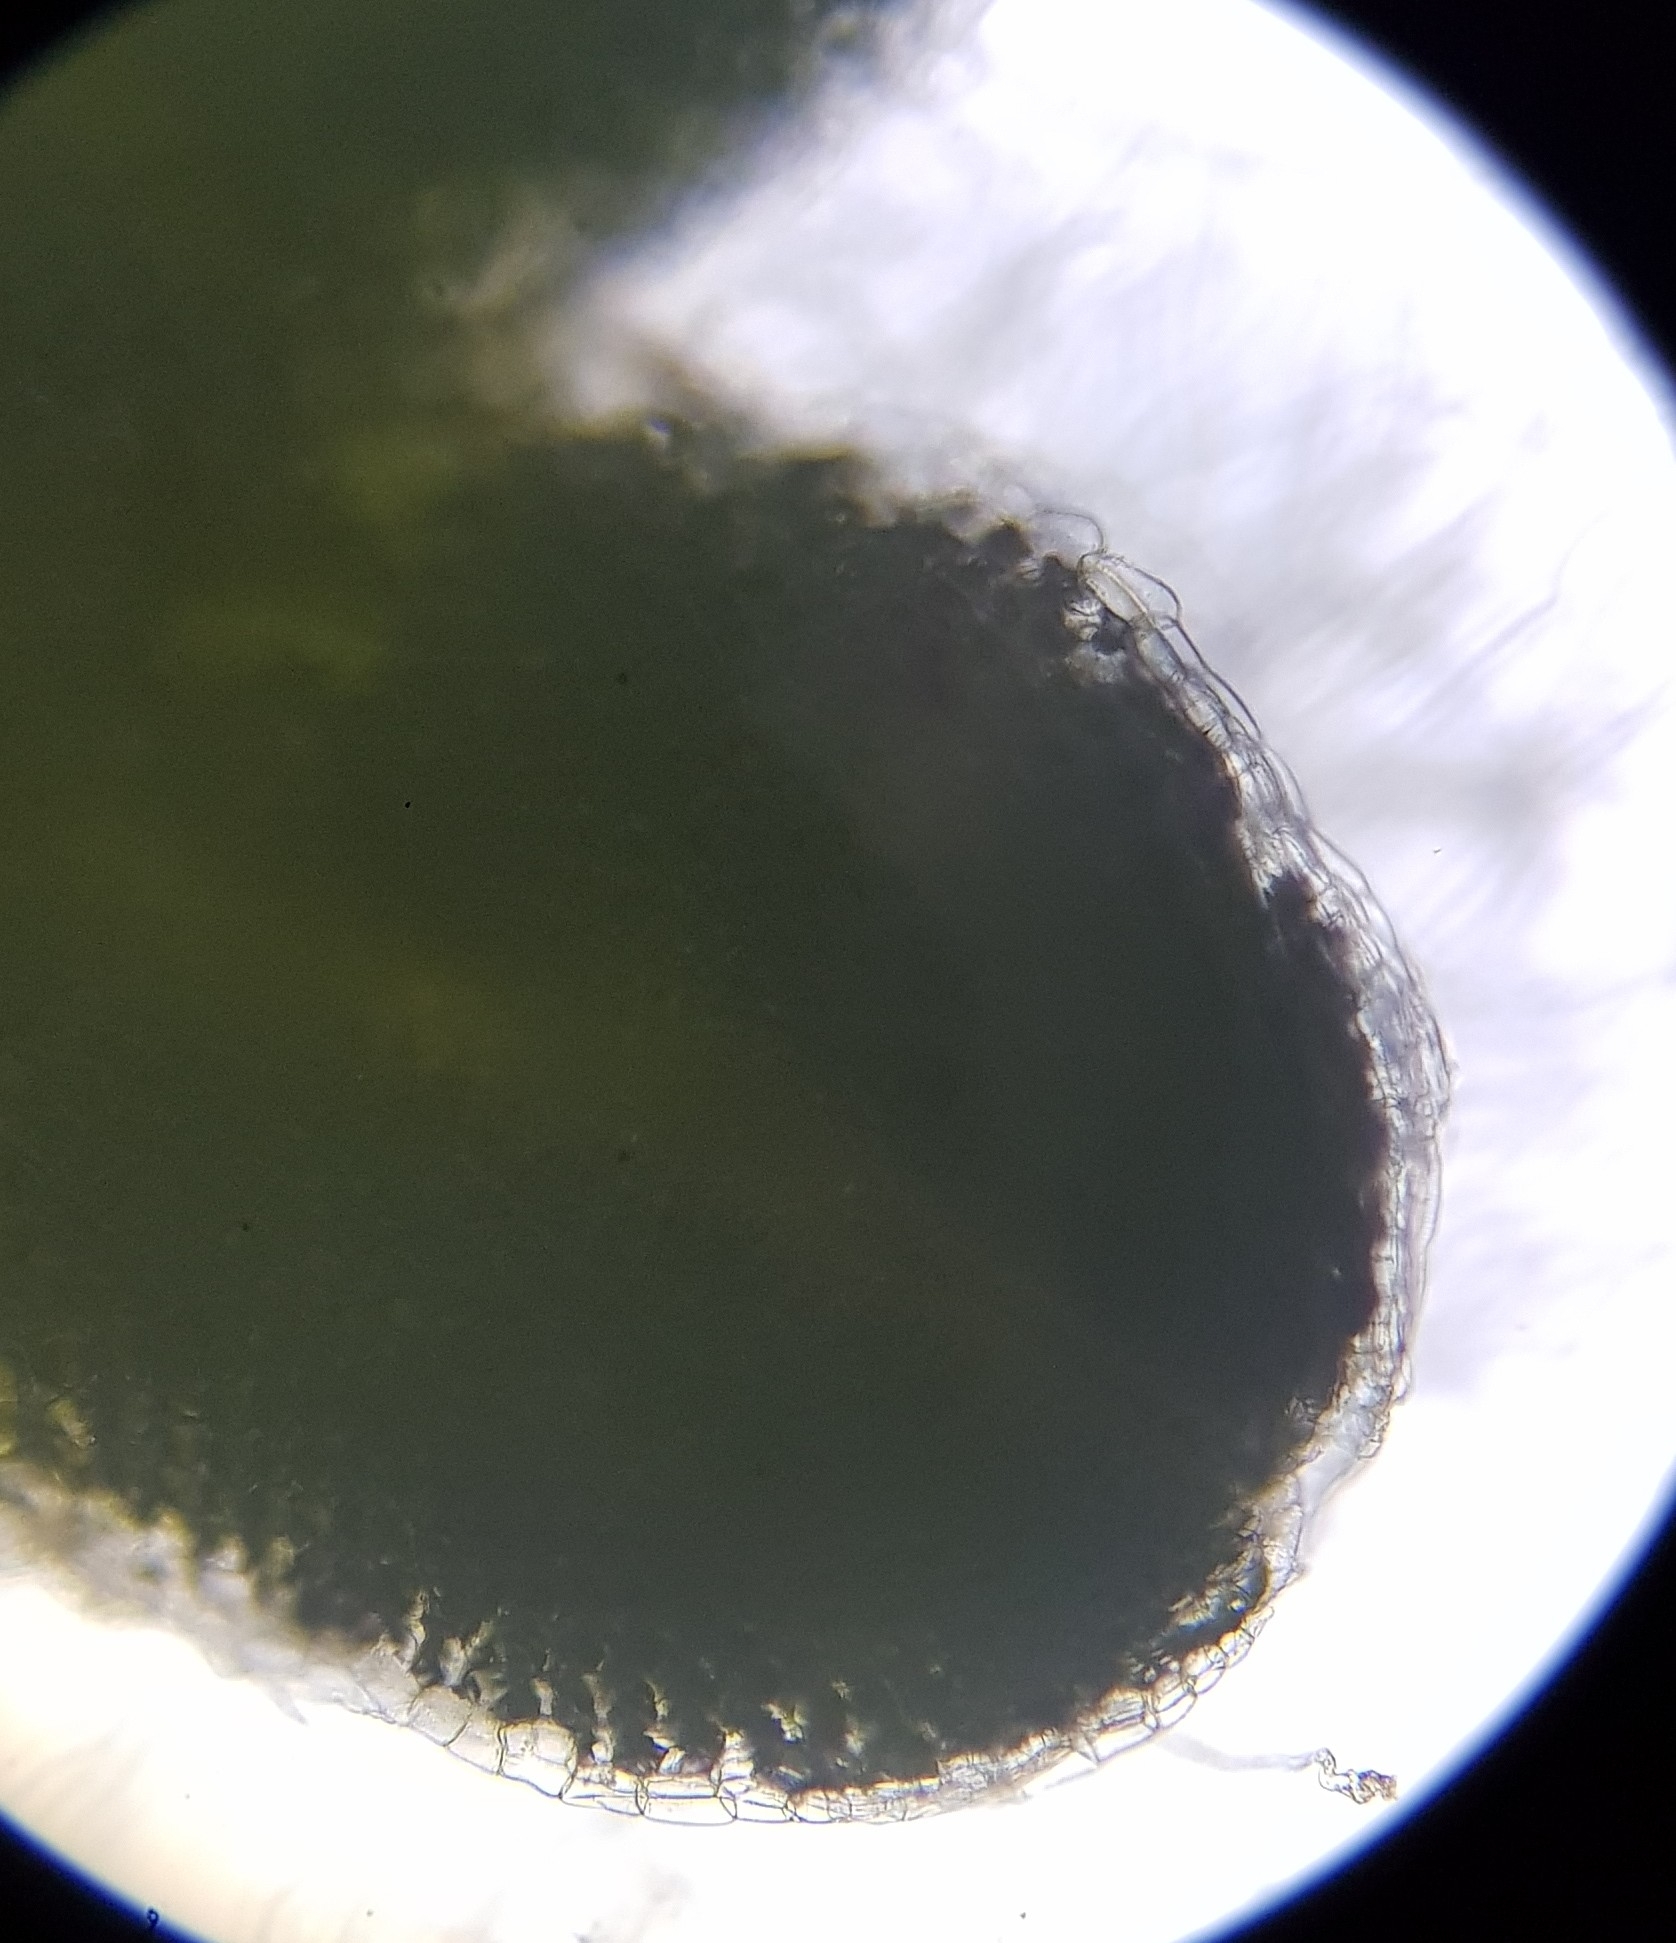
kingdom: Plantae
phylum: Marchantiophyta
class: Marchantiopsida
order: Marchantiales
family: Ricciaceae
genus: Riccia
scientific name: Riccia sorocarpa
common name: Common crystalwort
